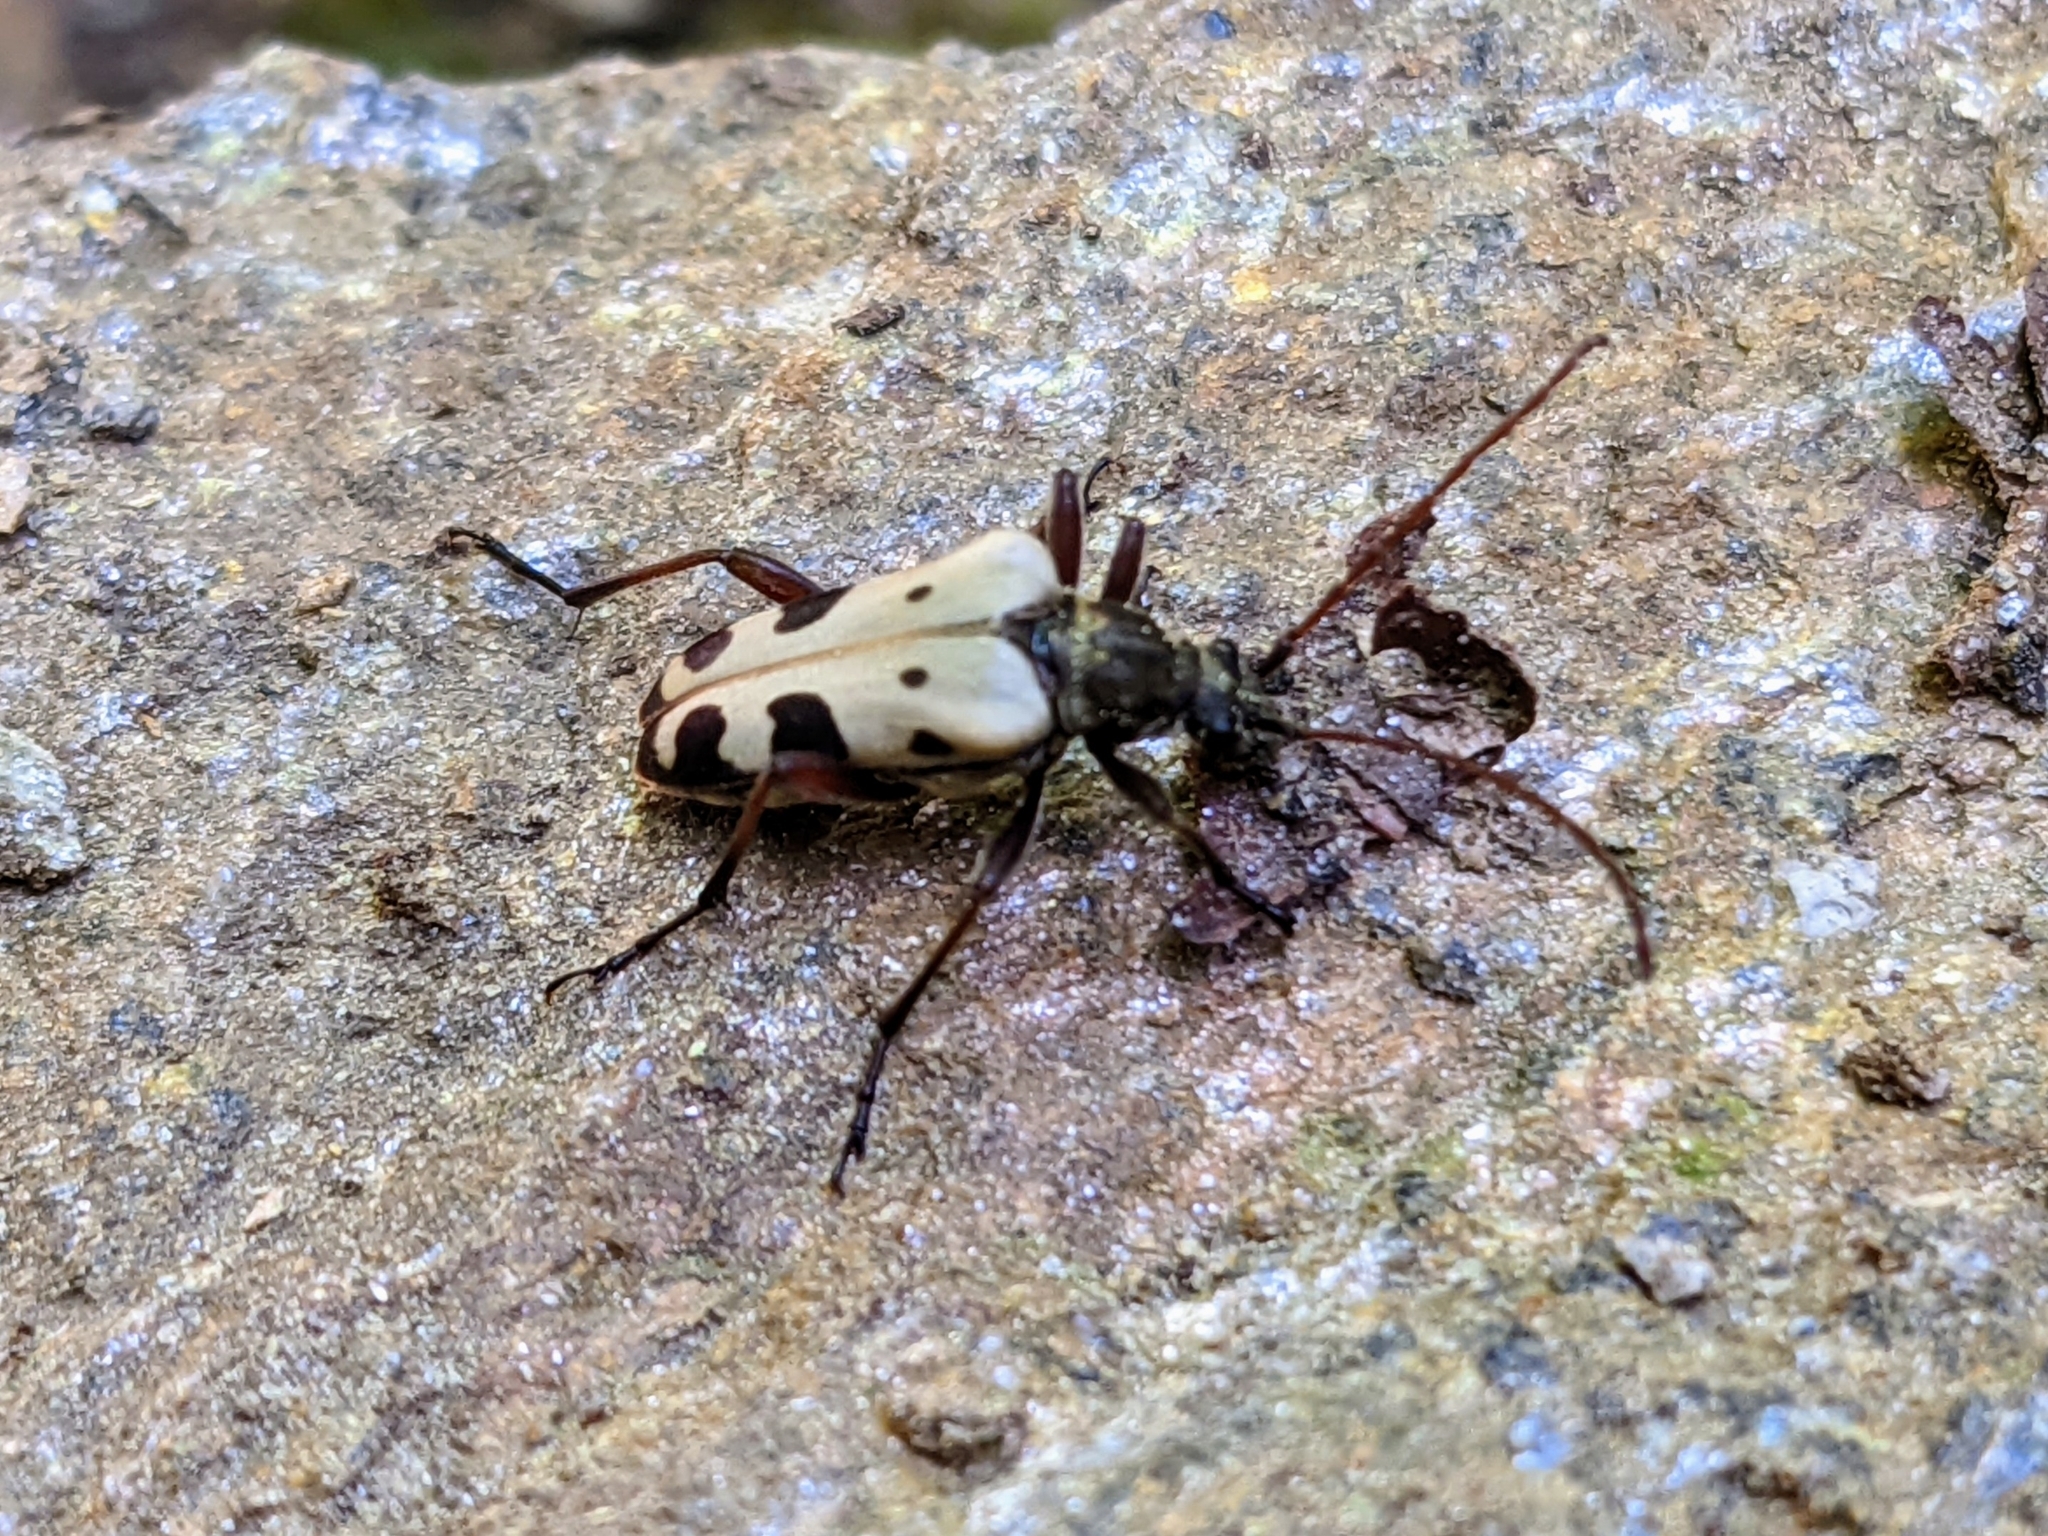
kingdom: Animalia
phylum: Arthropoda
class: Insecta
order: Coleoptera
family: Cerambycidae
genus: Evodinus
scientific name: Evodinus monticola
